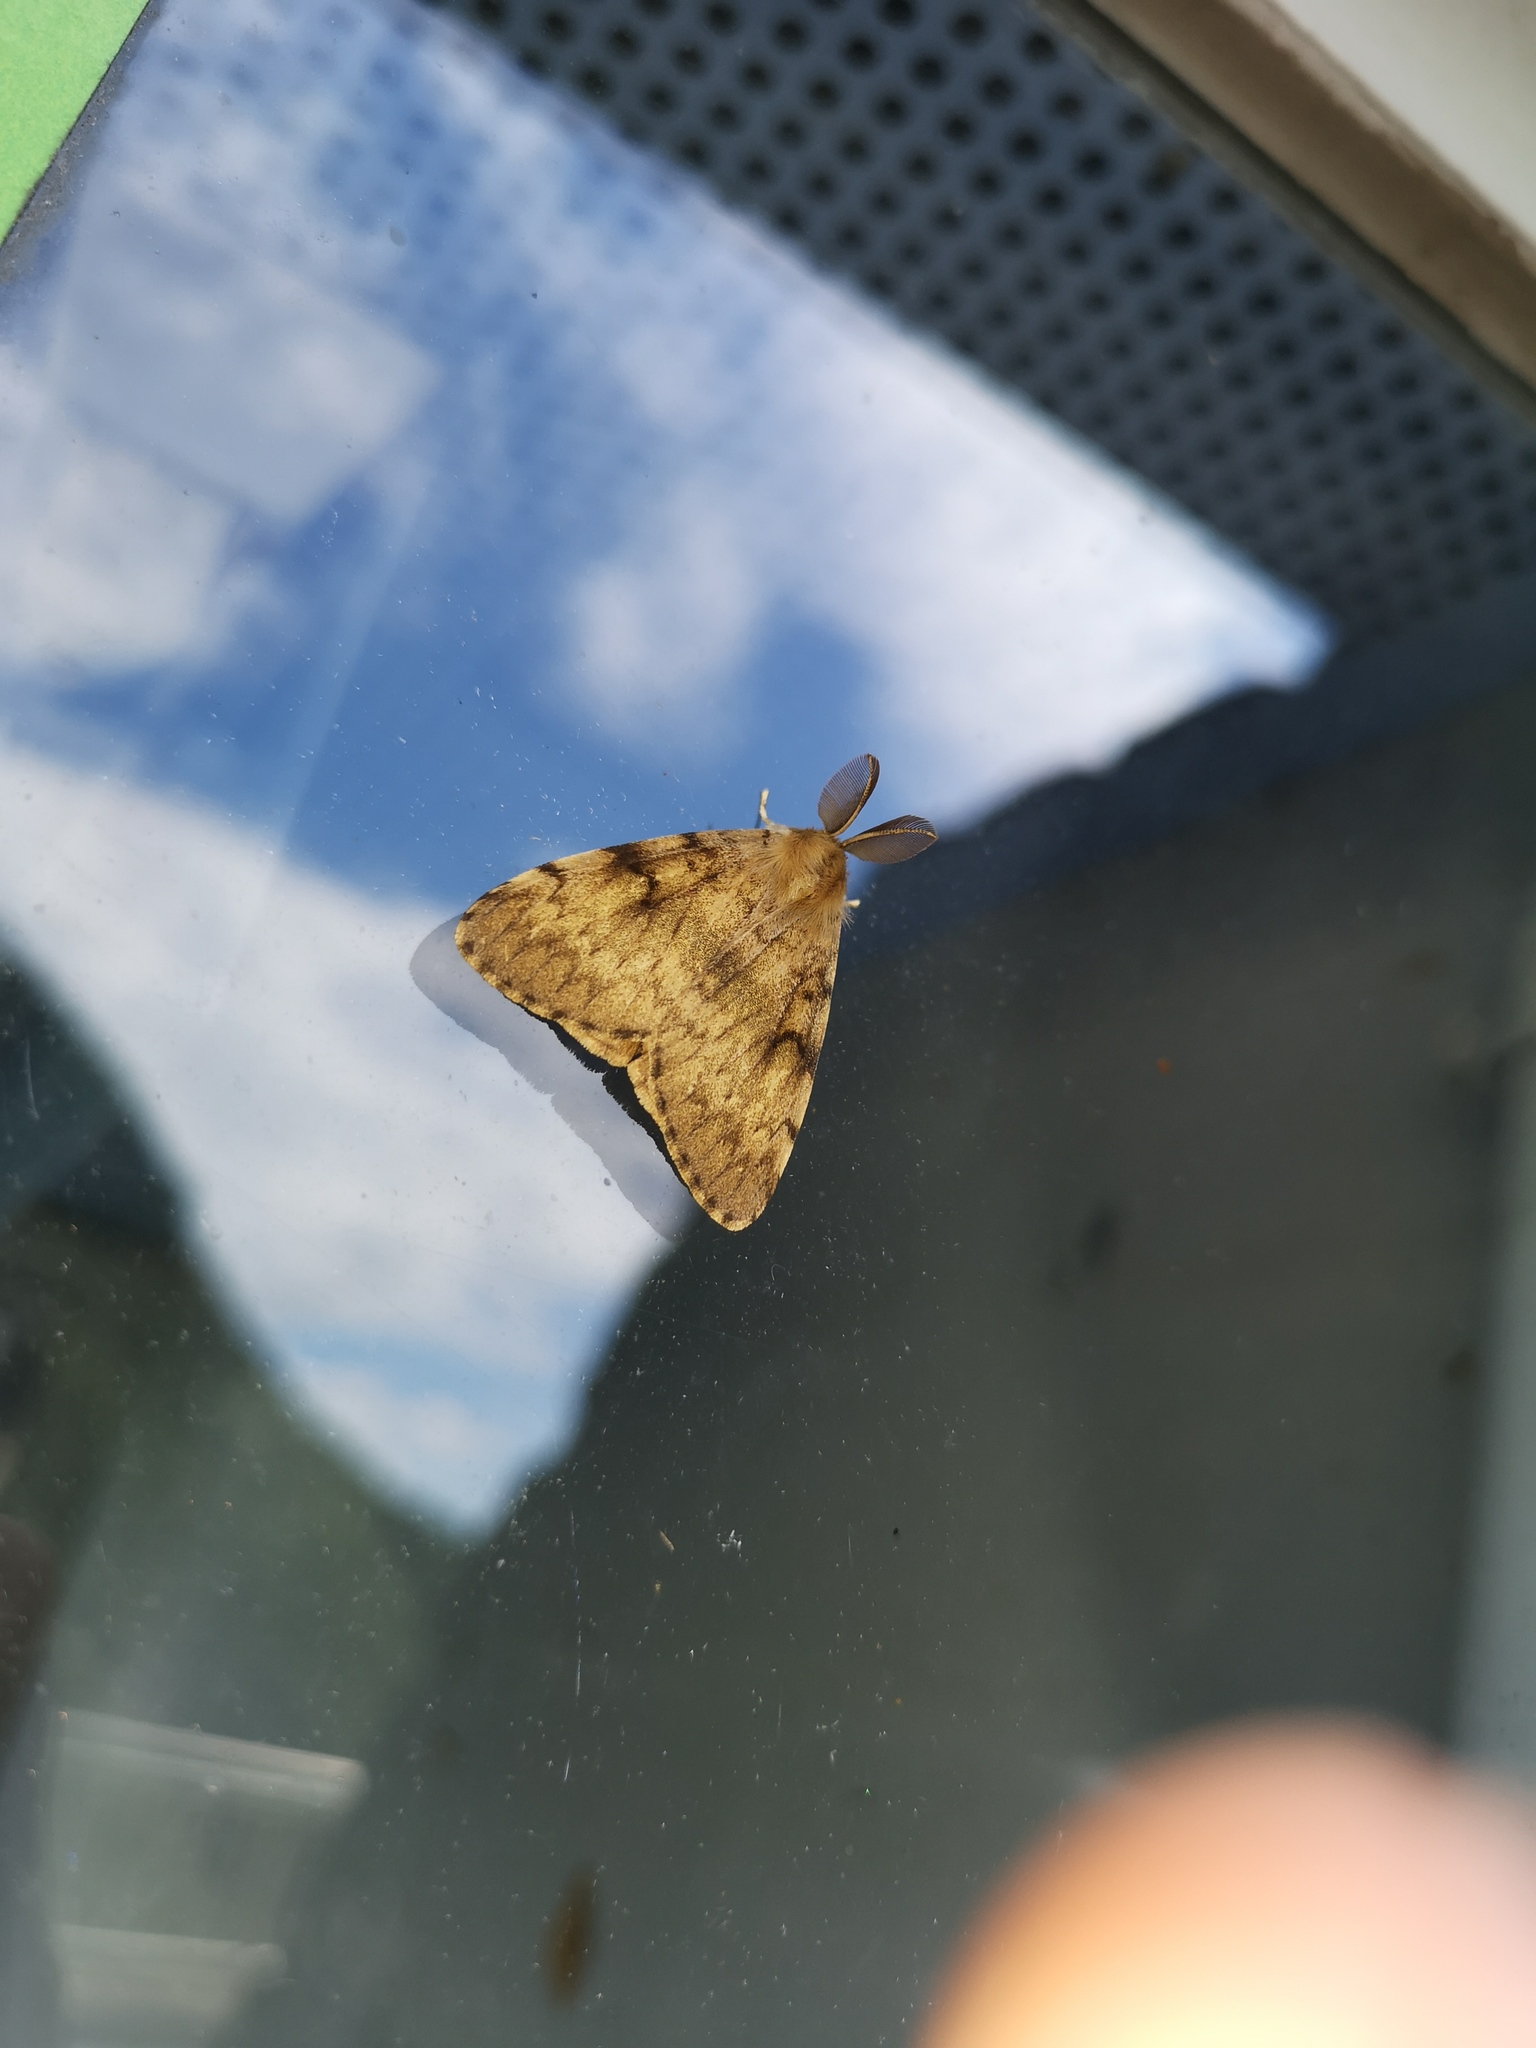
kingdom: Animalia
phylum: Arthropoda
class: Insecta
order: Lepidoptera
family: Erebidae
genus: Lymantria
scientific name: Lymantria dispar
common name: Gypsy moth
